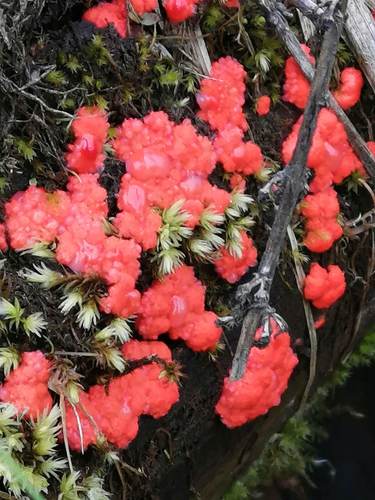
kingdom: Protozoa
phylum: Mycetozoa
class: Myxomycetes
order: Cribrariales
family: Tubiferaceae
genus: Tubifera
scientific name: Tubifera ferruginosa
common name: Red raspberry slime mold
